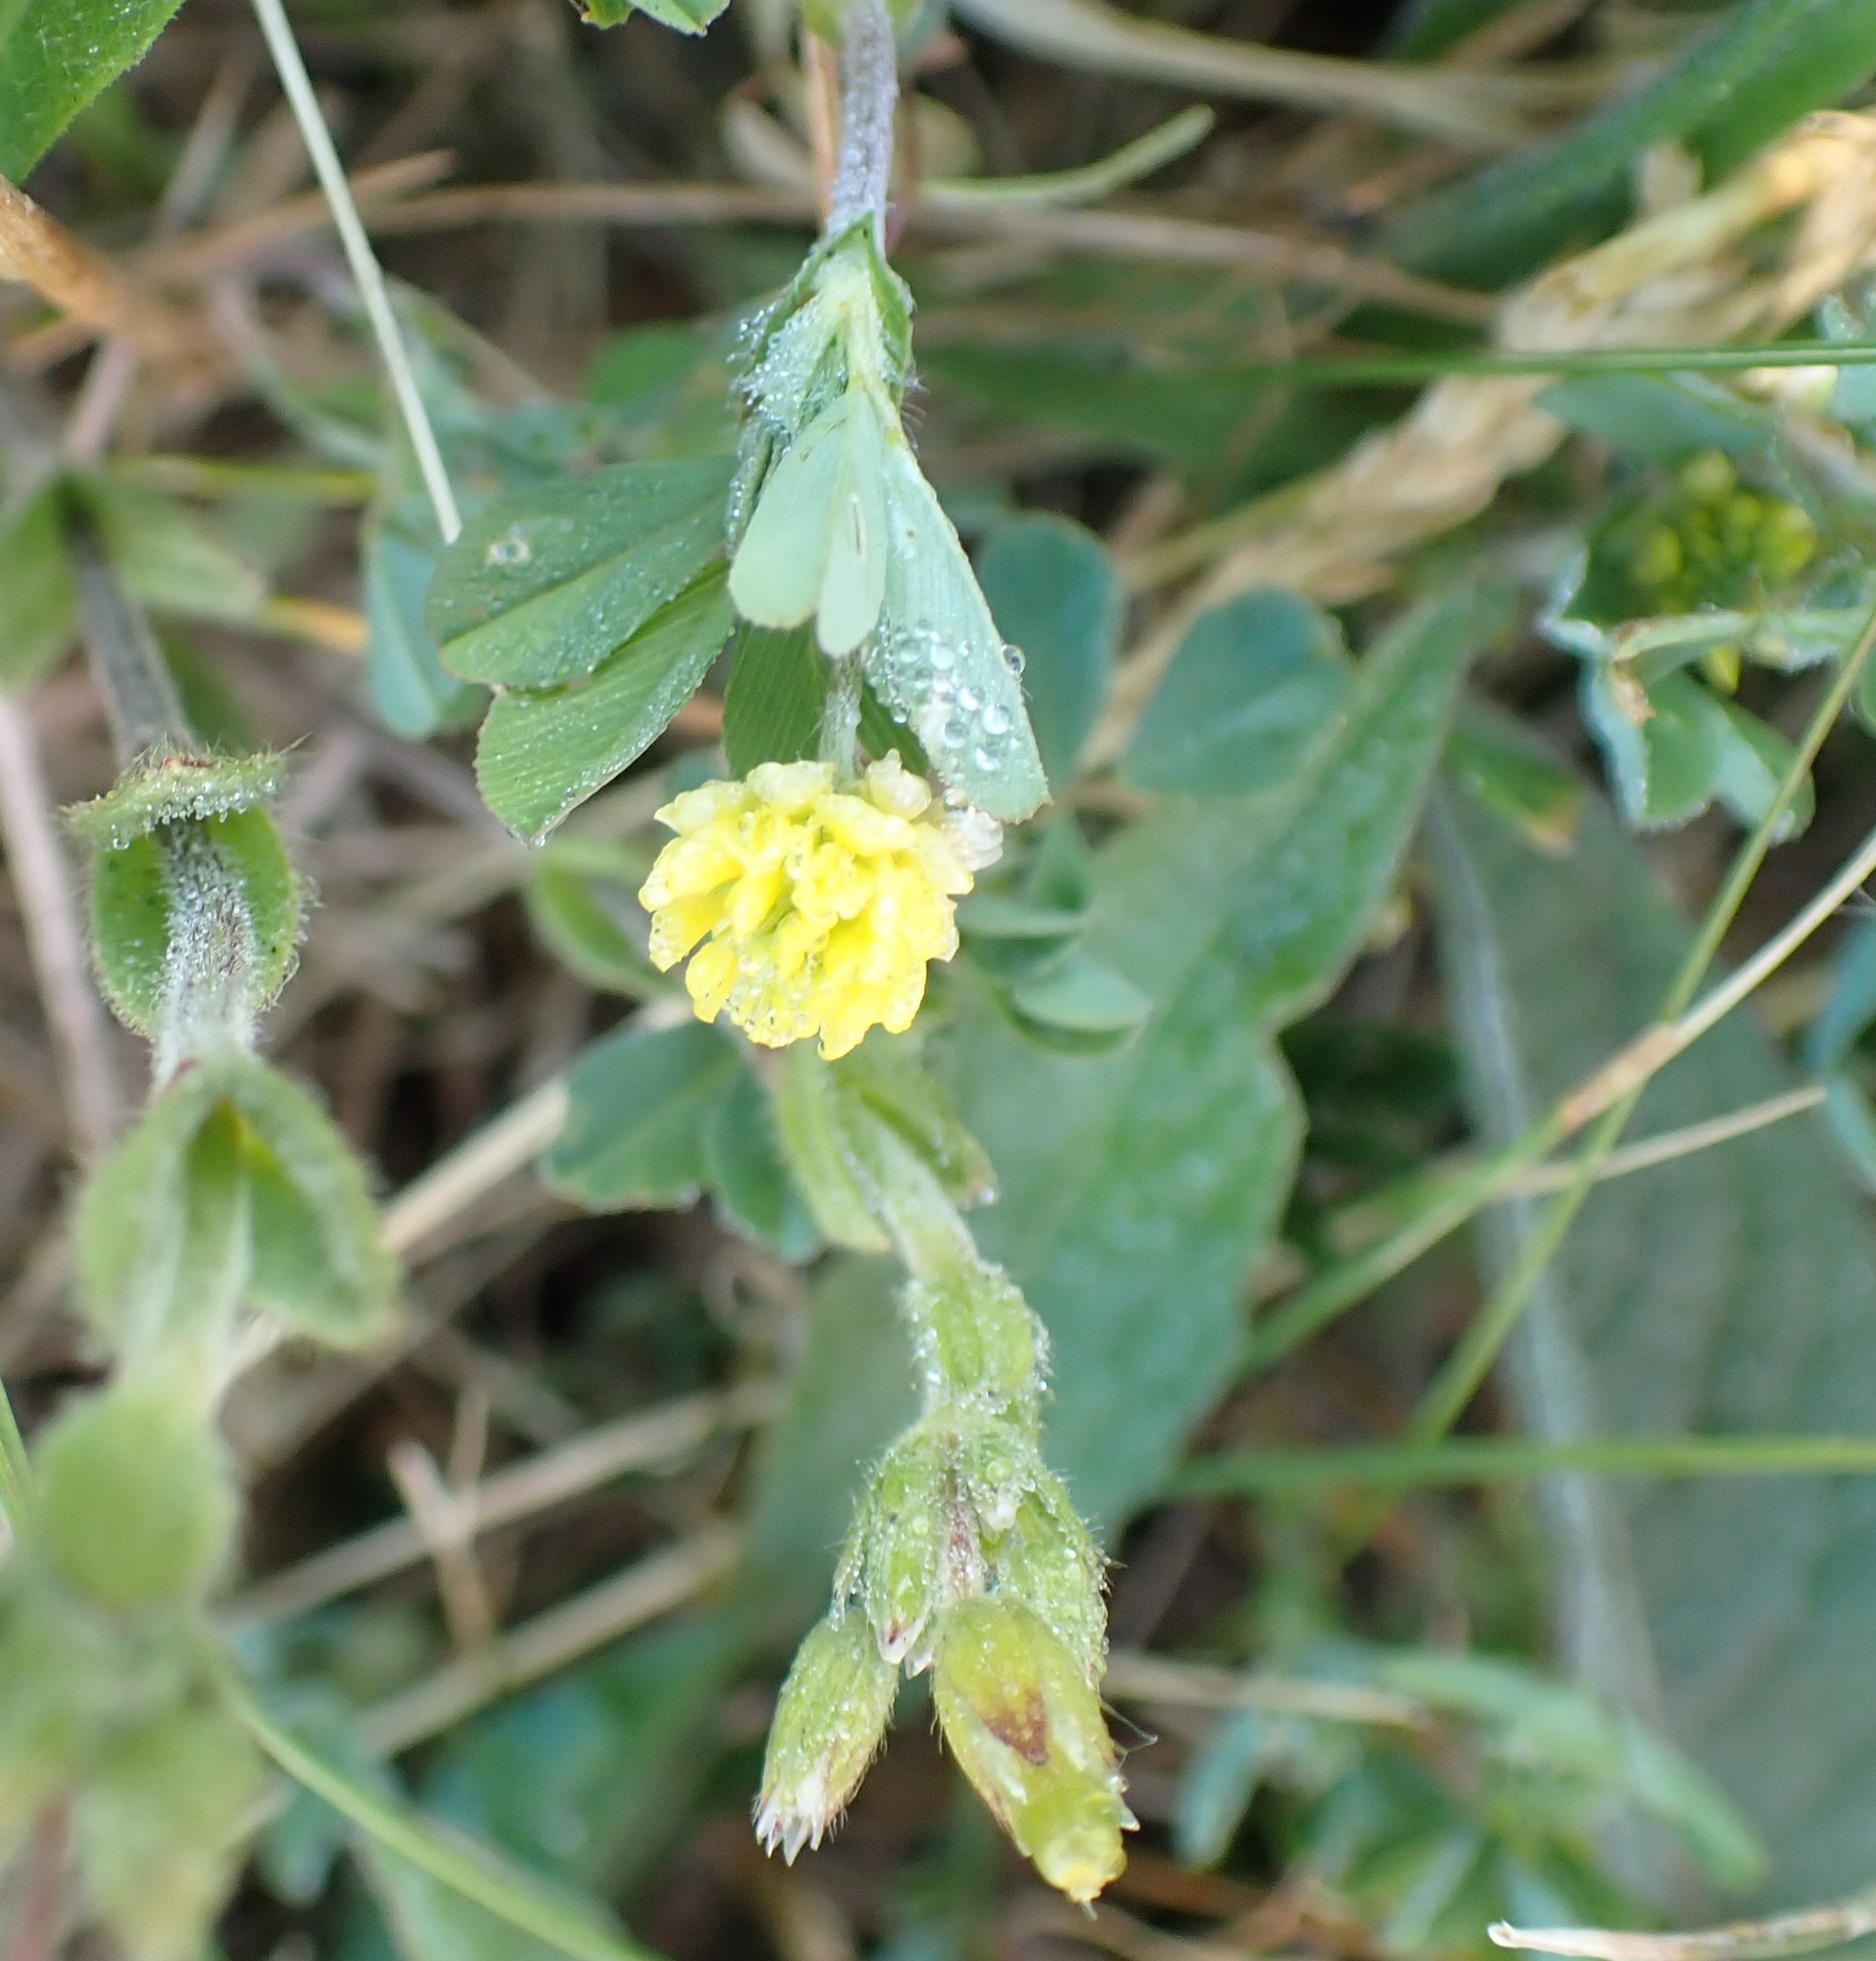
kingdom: Plantae
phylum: Tracheophyta
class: Magnoliopsida
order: Fabales
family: Fabaceae
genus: Trifolium
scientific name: Trifolium campestre
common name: Field clover
